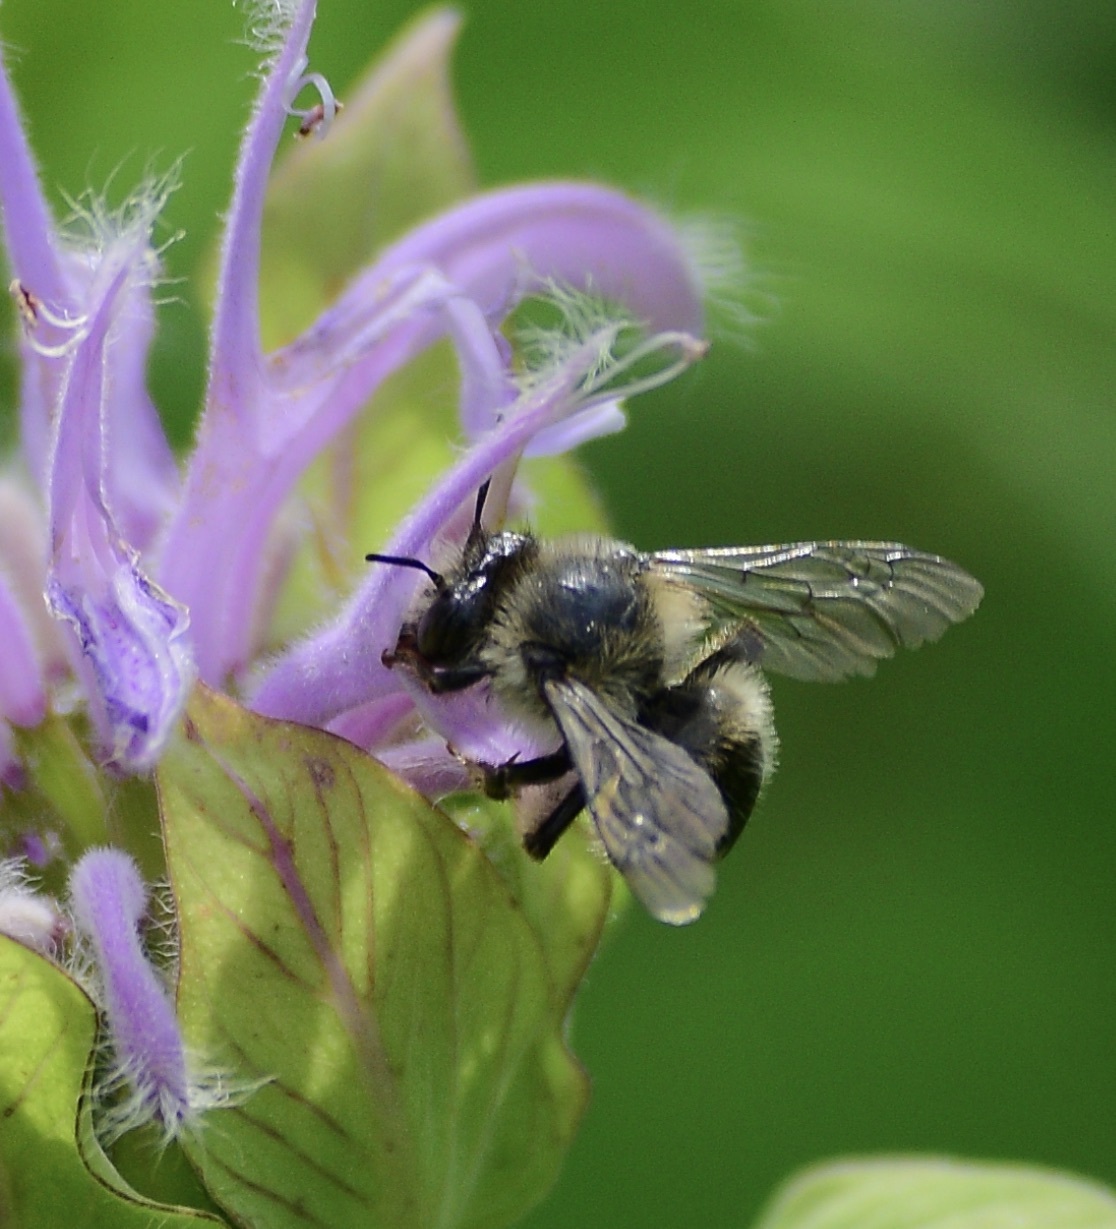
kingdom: Animalia
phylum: Arthropoda
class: Insecta
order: Hymenoptera
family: Apidae
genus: Anthophora
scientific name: Anthophora terminalis
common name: Orange-tipped wood-digger bee
